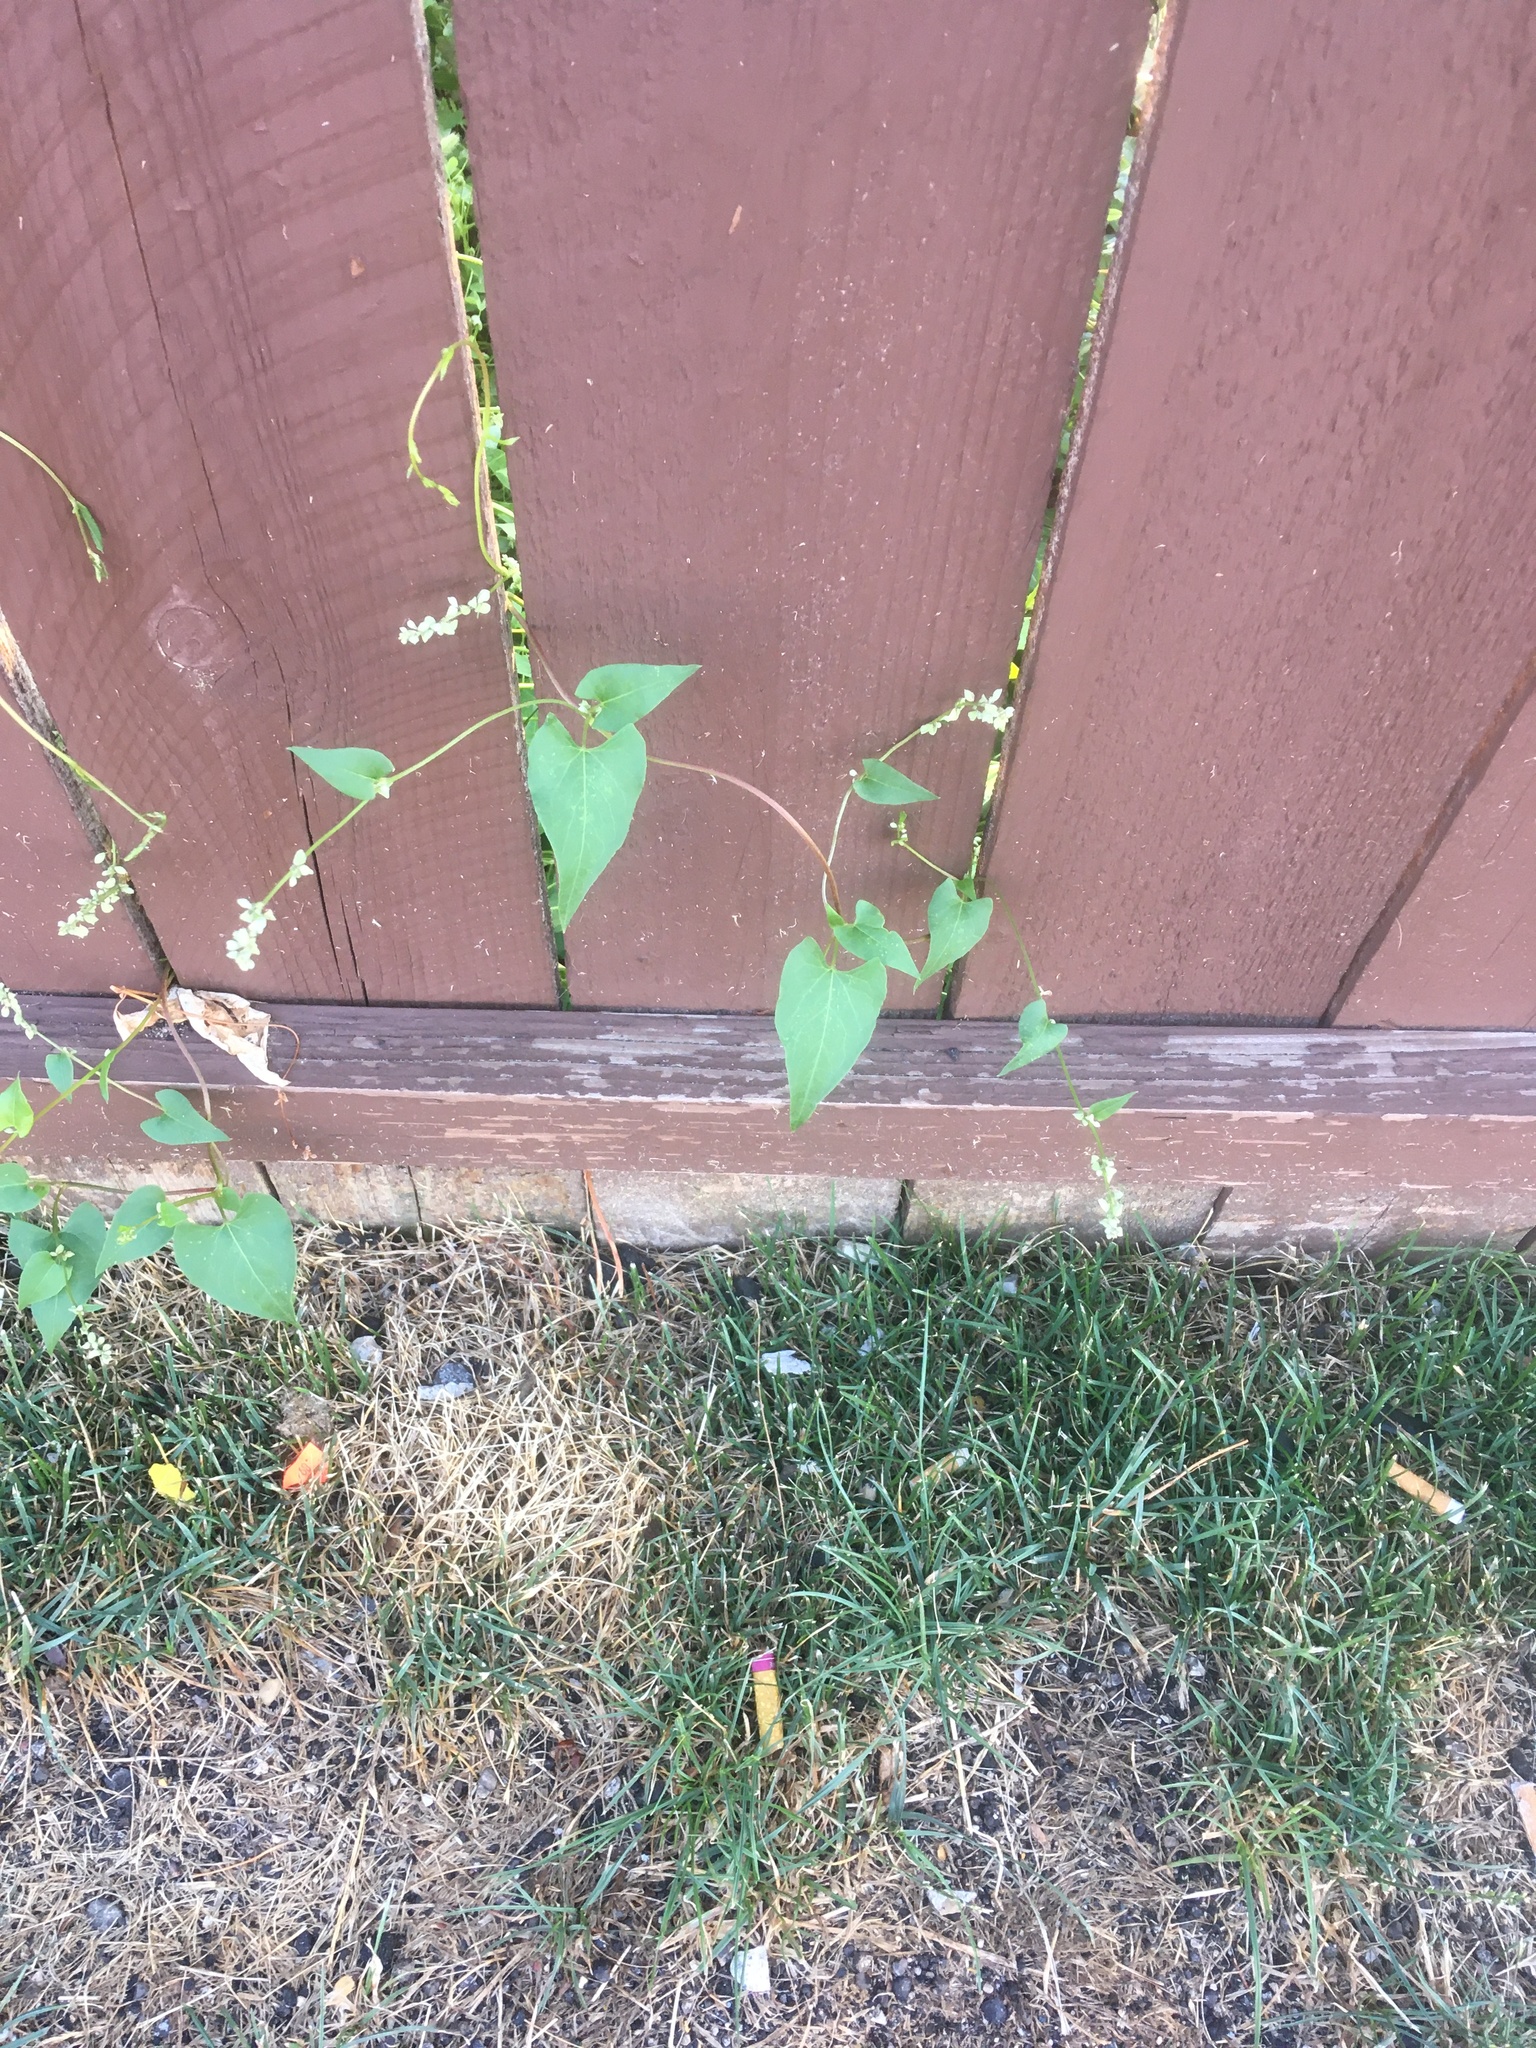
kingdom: Plantae
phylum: Tracheophyta
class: Magnoliopsida
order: Caryophyllales
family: Polygonaceae
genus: Fallopia
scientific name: Fallopia convolvulus
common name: Black bindweed
